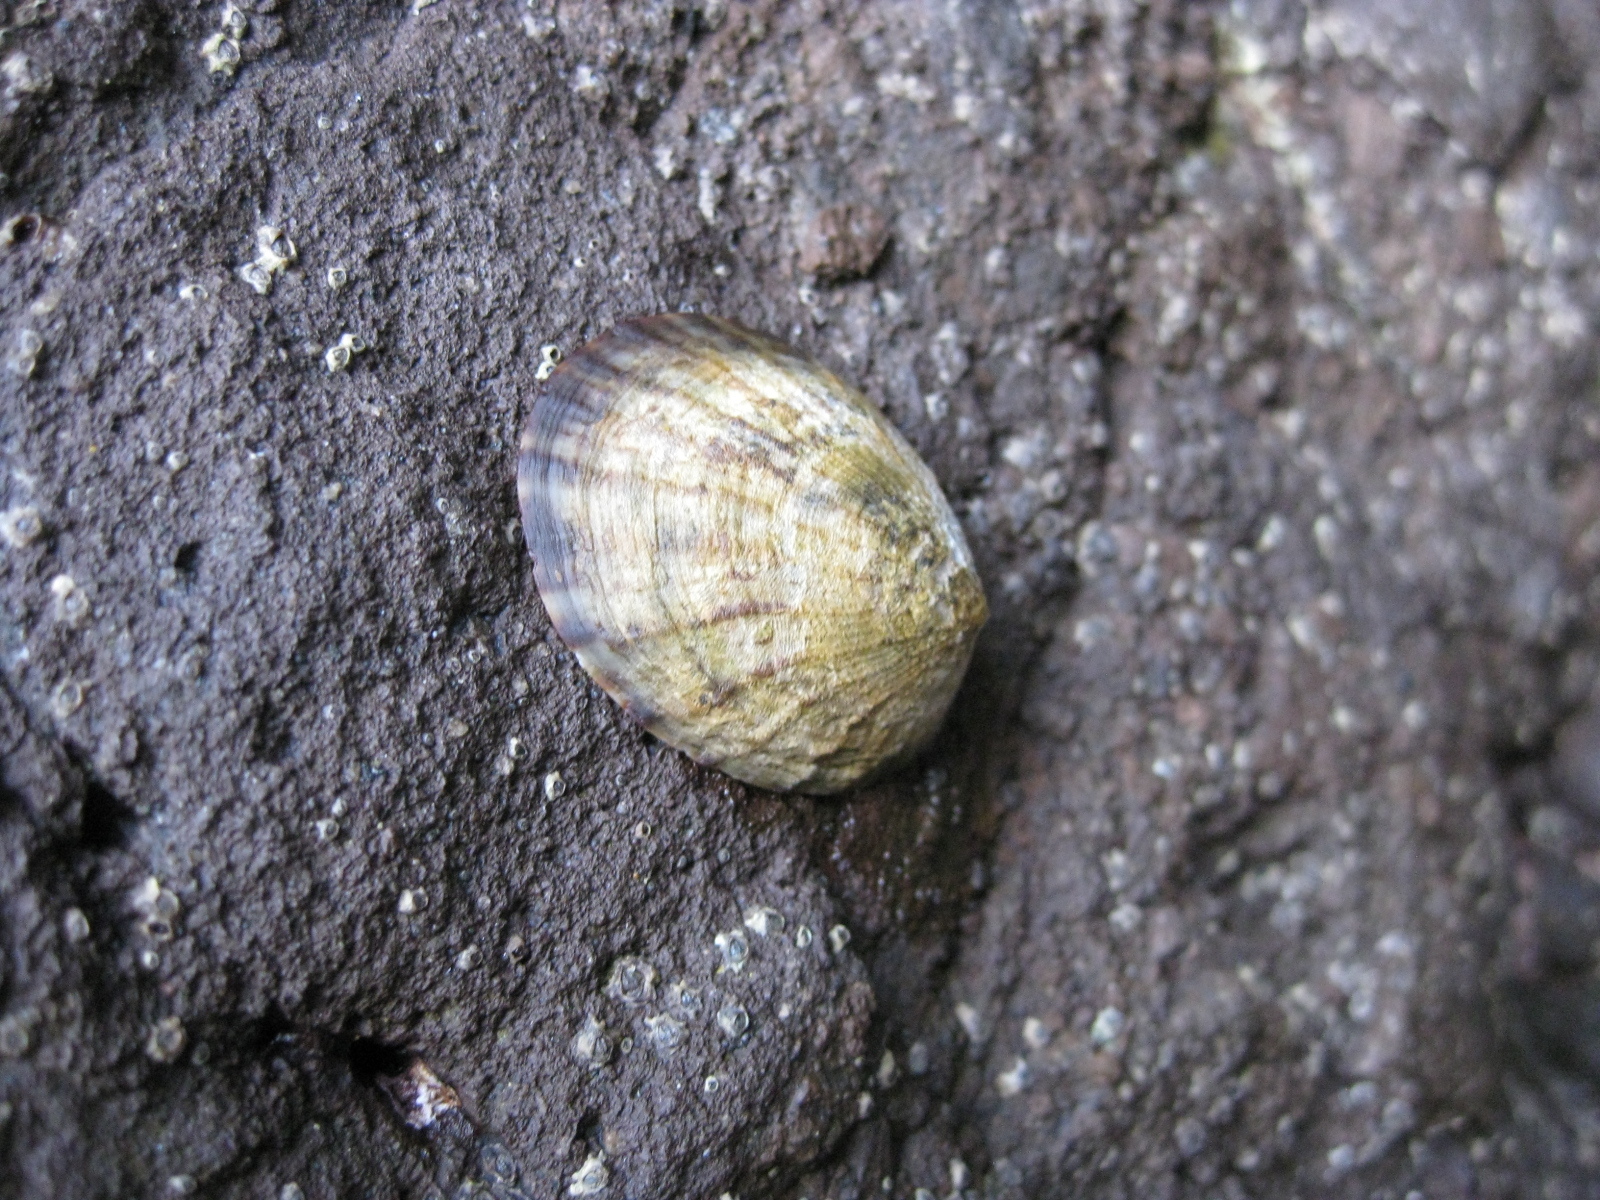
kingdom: Animalia
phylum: Mollusca
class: Gastropoda
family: Nacellidae
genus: Cellana
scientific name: Cellana radians
